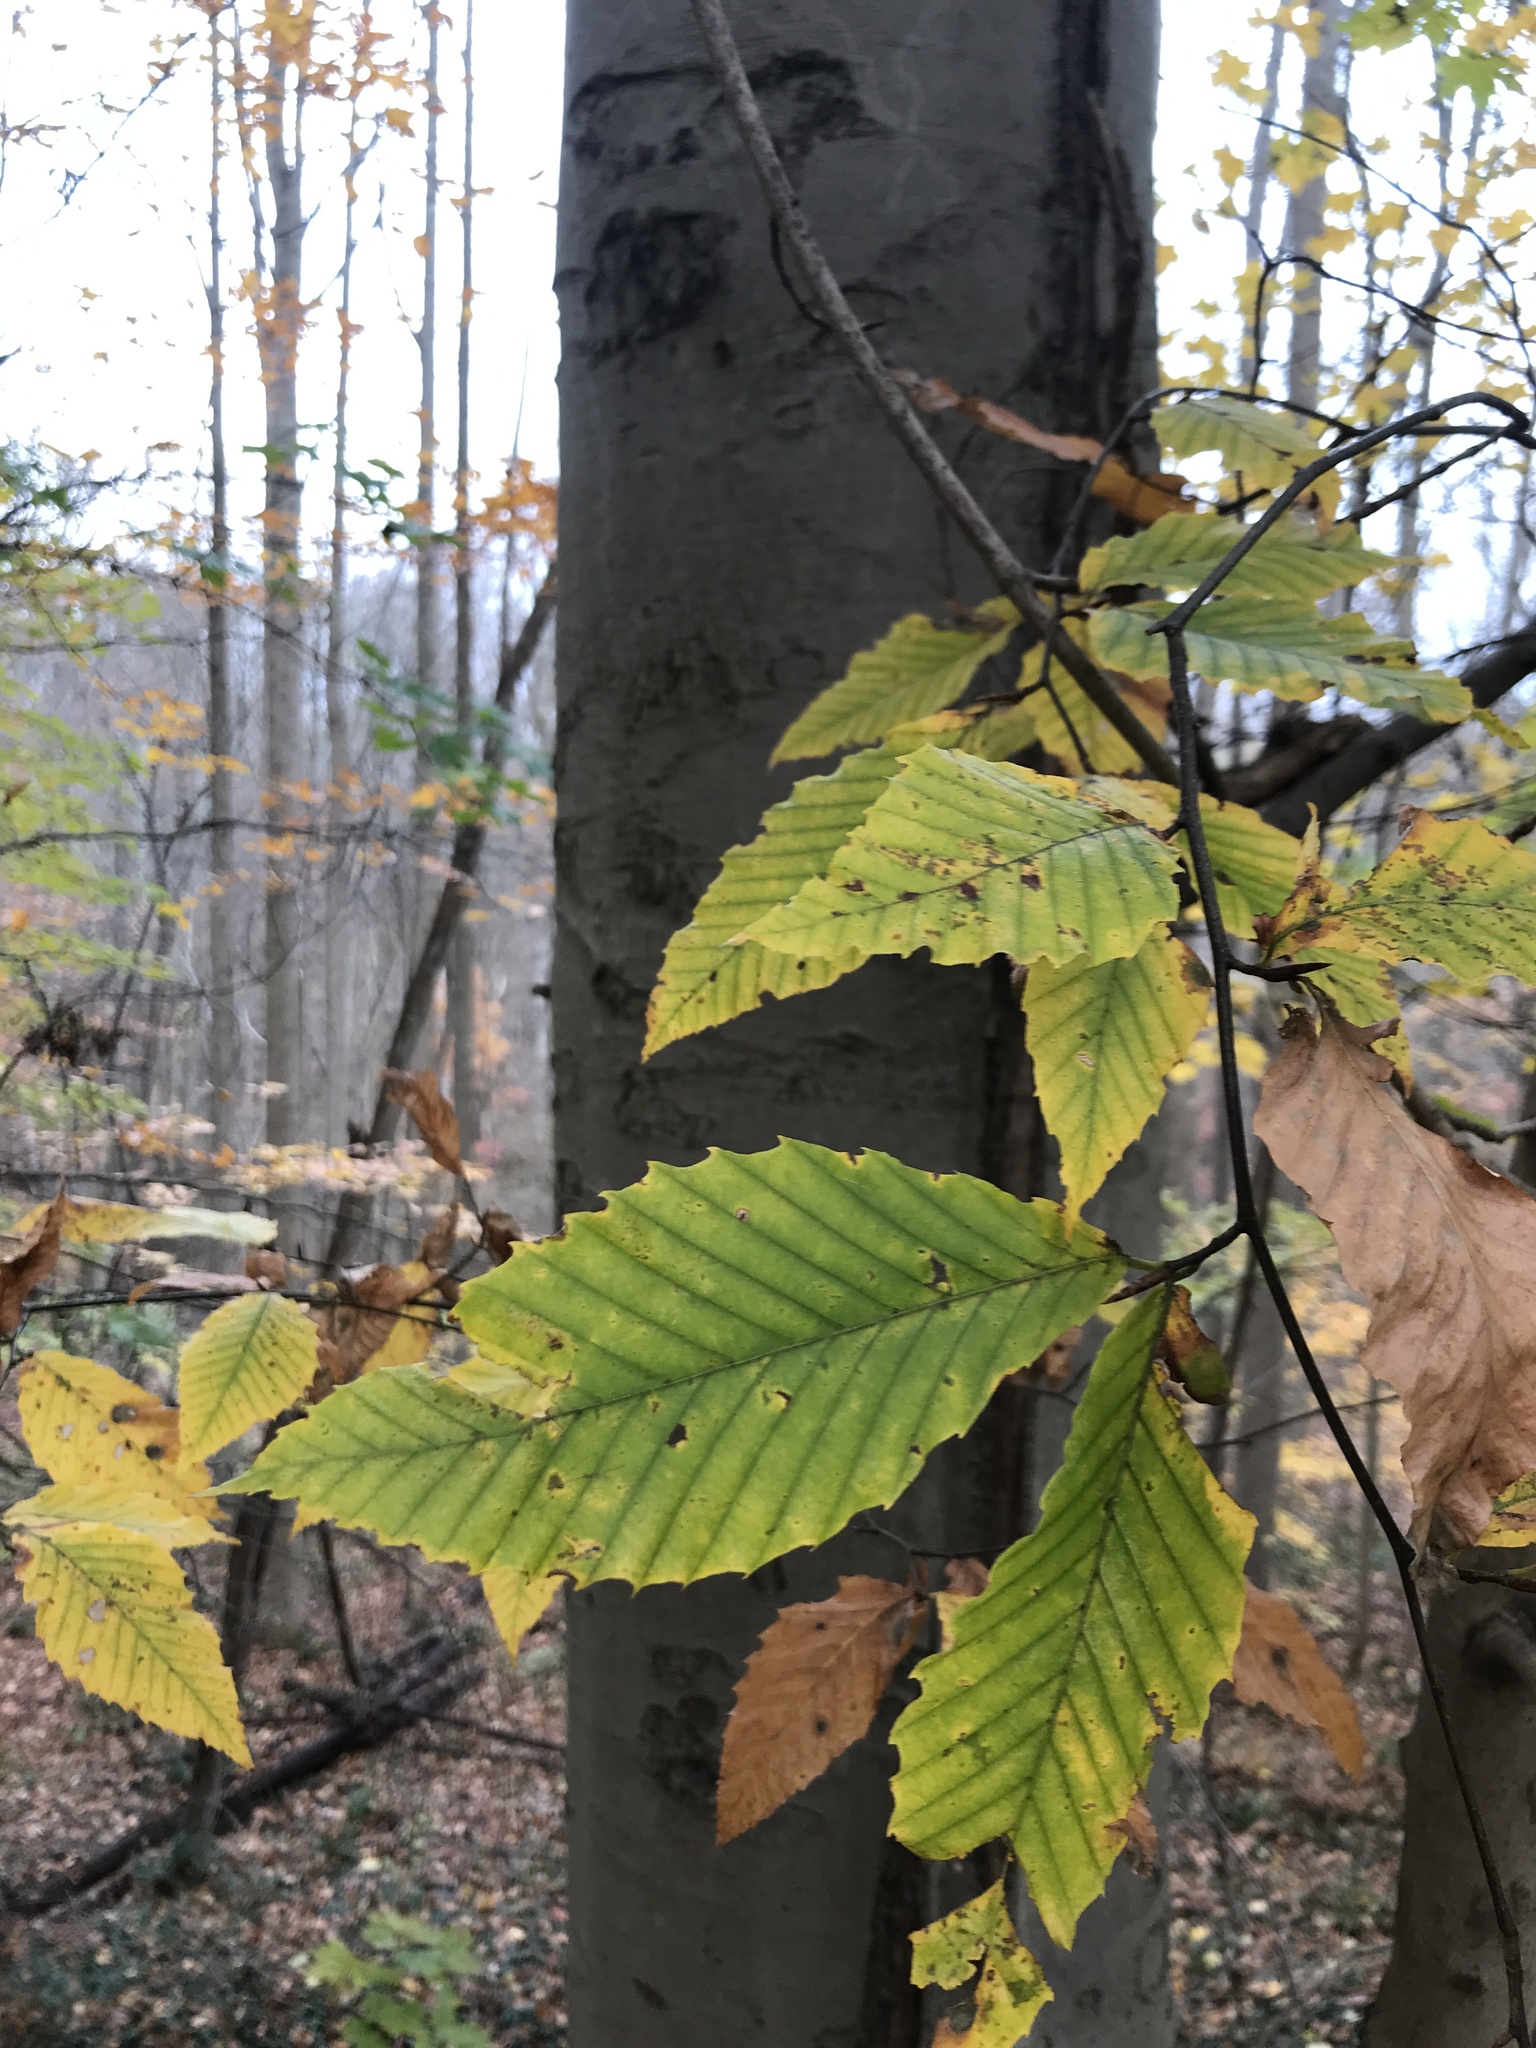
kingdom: Plantae
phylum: Tracheophyta
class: Magnoliopsida
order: Fagales
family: Fagaceae
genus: Fagus
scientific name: Fagus grandifolia
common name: American beech
